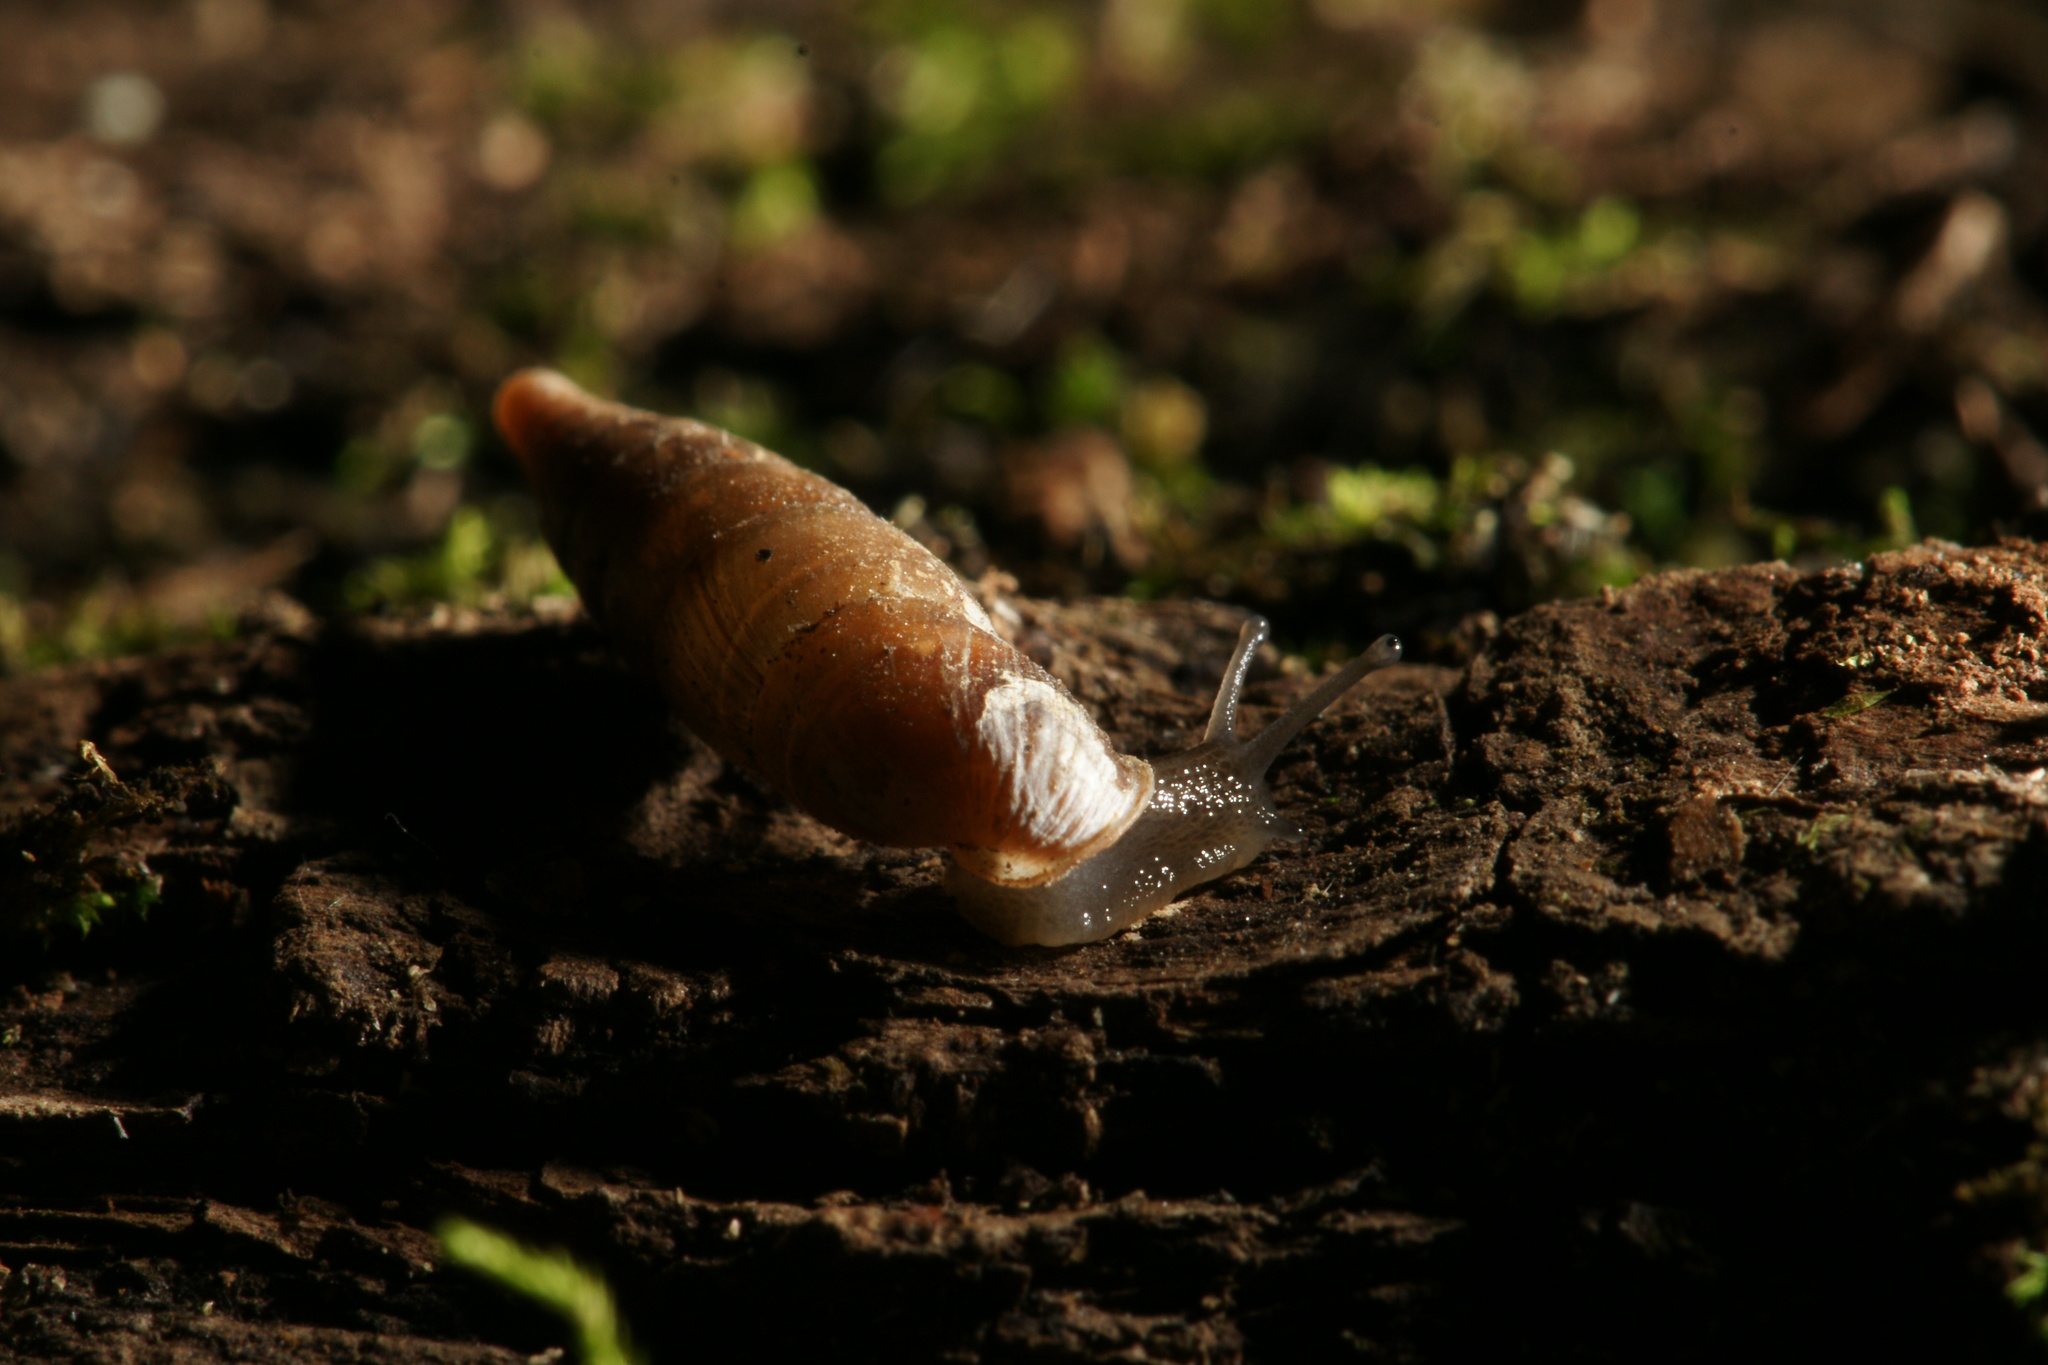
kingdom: Animalia
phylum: Mollusca
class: Gastropoda
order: Stylommatophora
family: Clausiliidae
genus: Cochlodina
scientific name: Cochlodina laminata
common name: Plaited door snail
